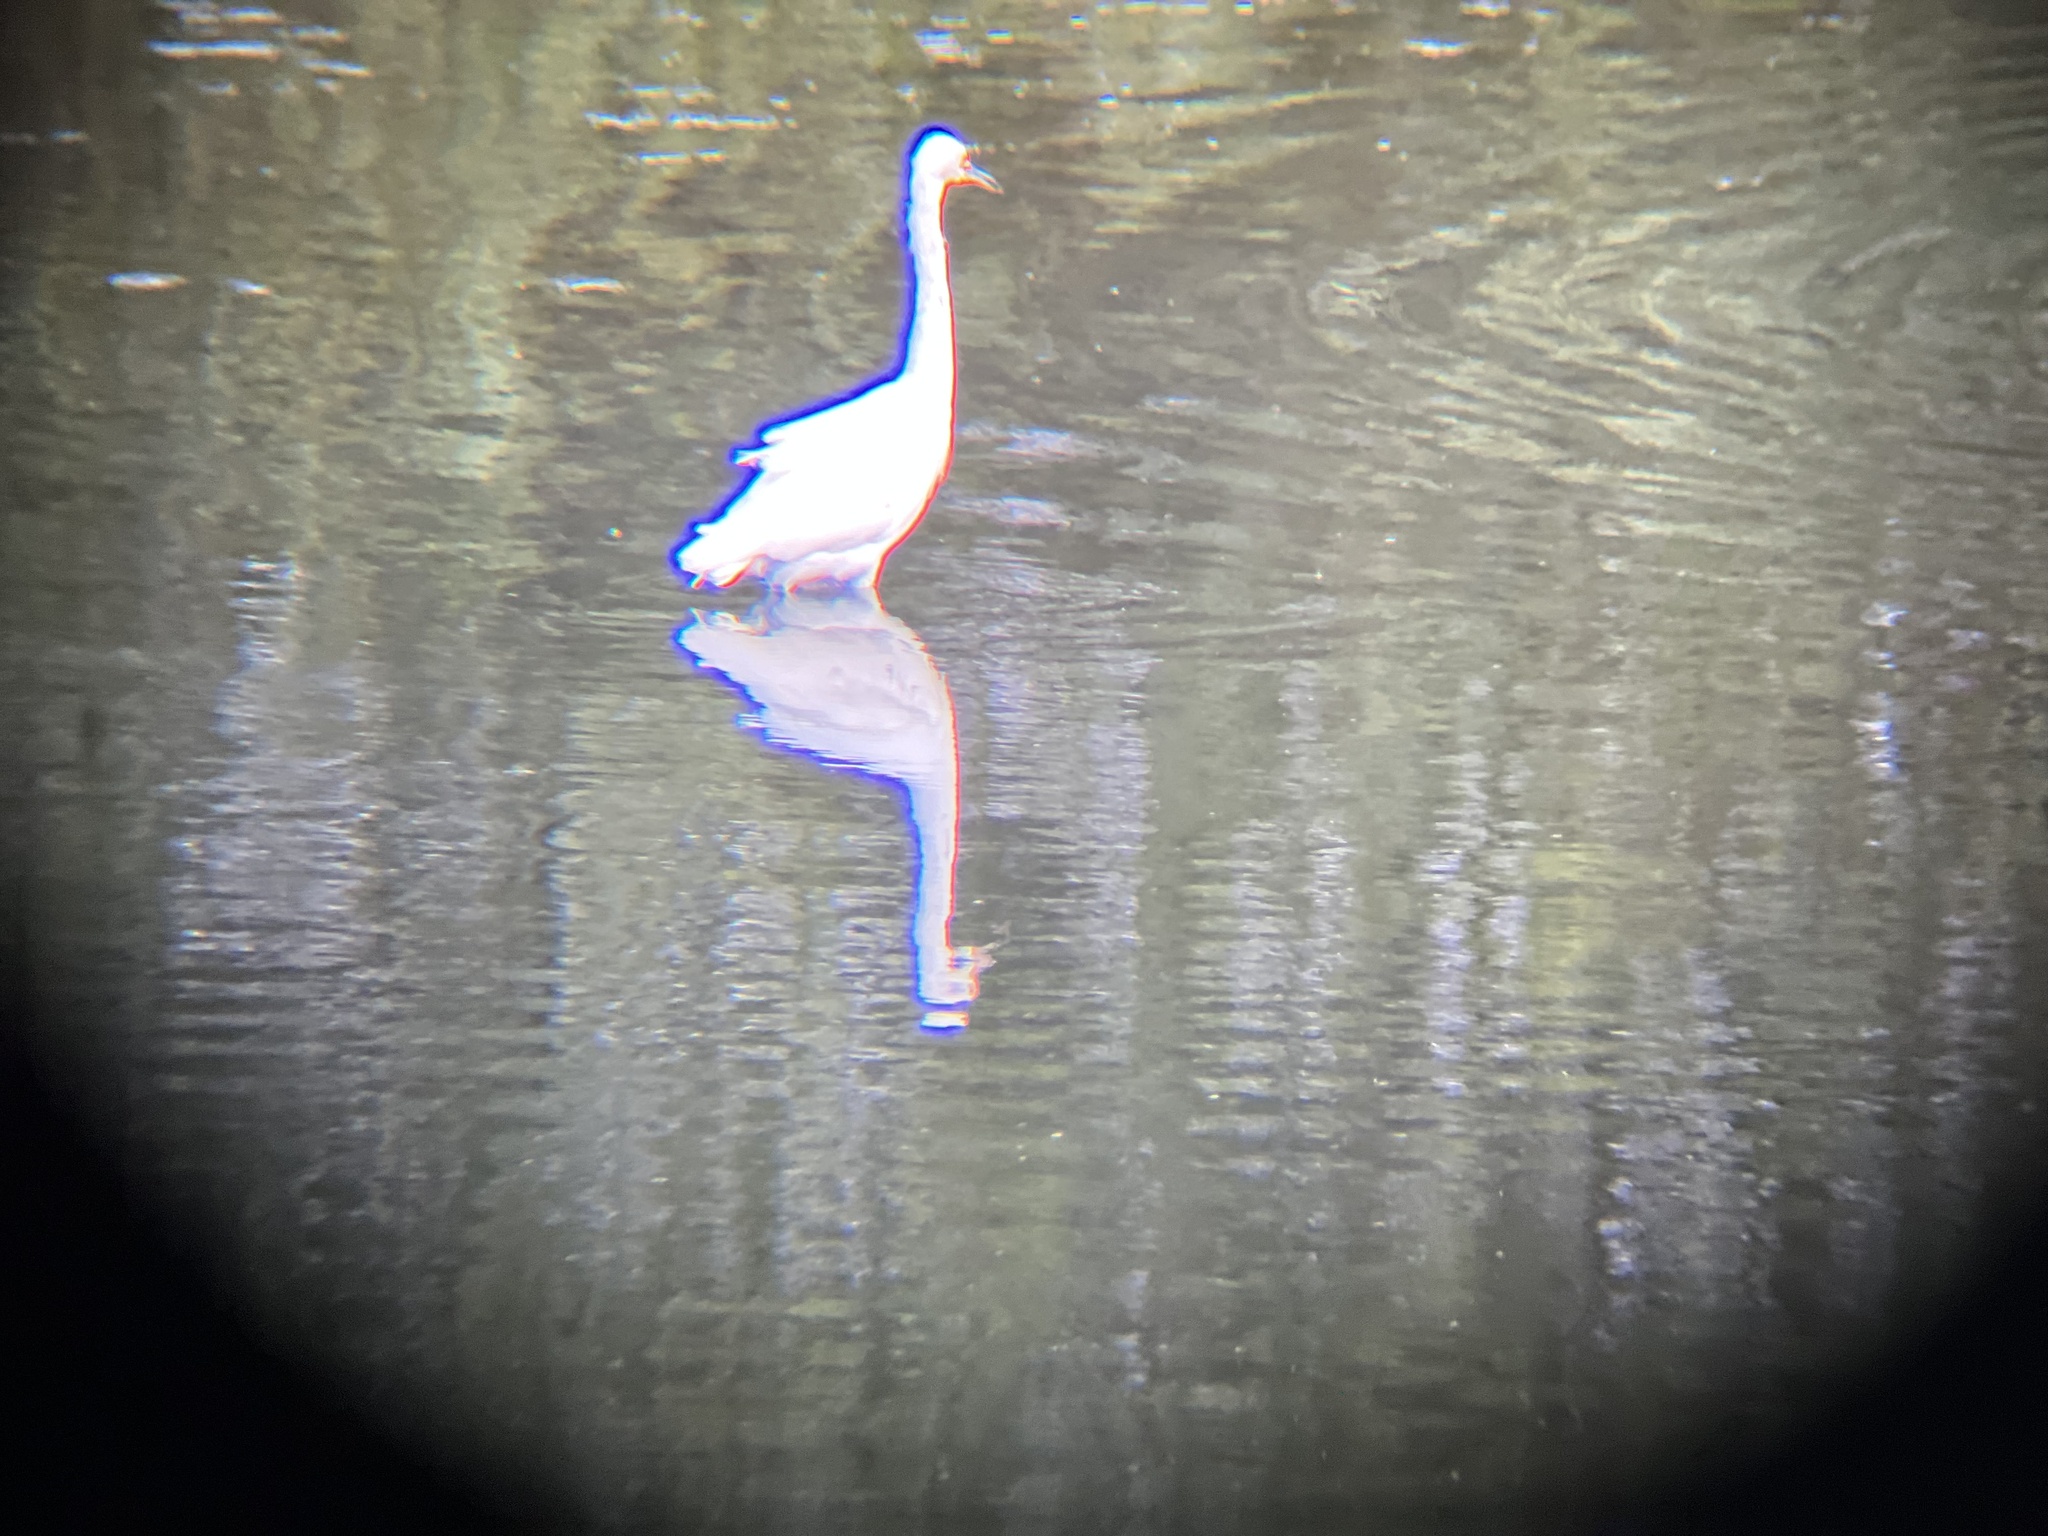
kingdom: Animalia
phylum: Chordata
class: Aves
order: Pelecaniformes
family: Ardeidae
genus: Egretta
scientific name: Egretta thula
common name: Snowy egret
